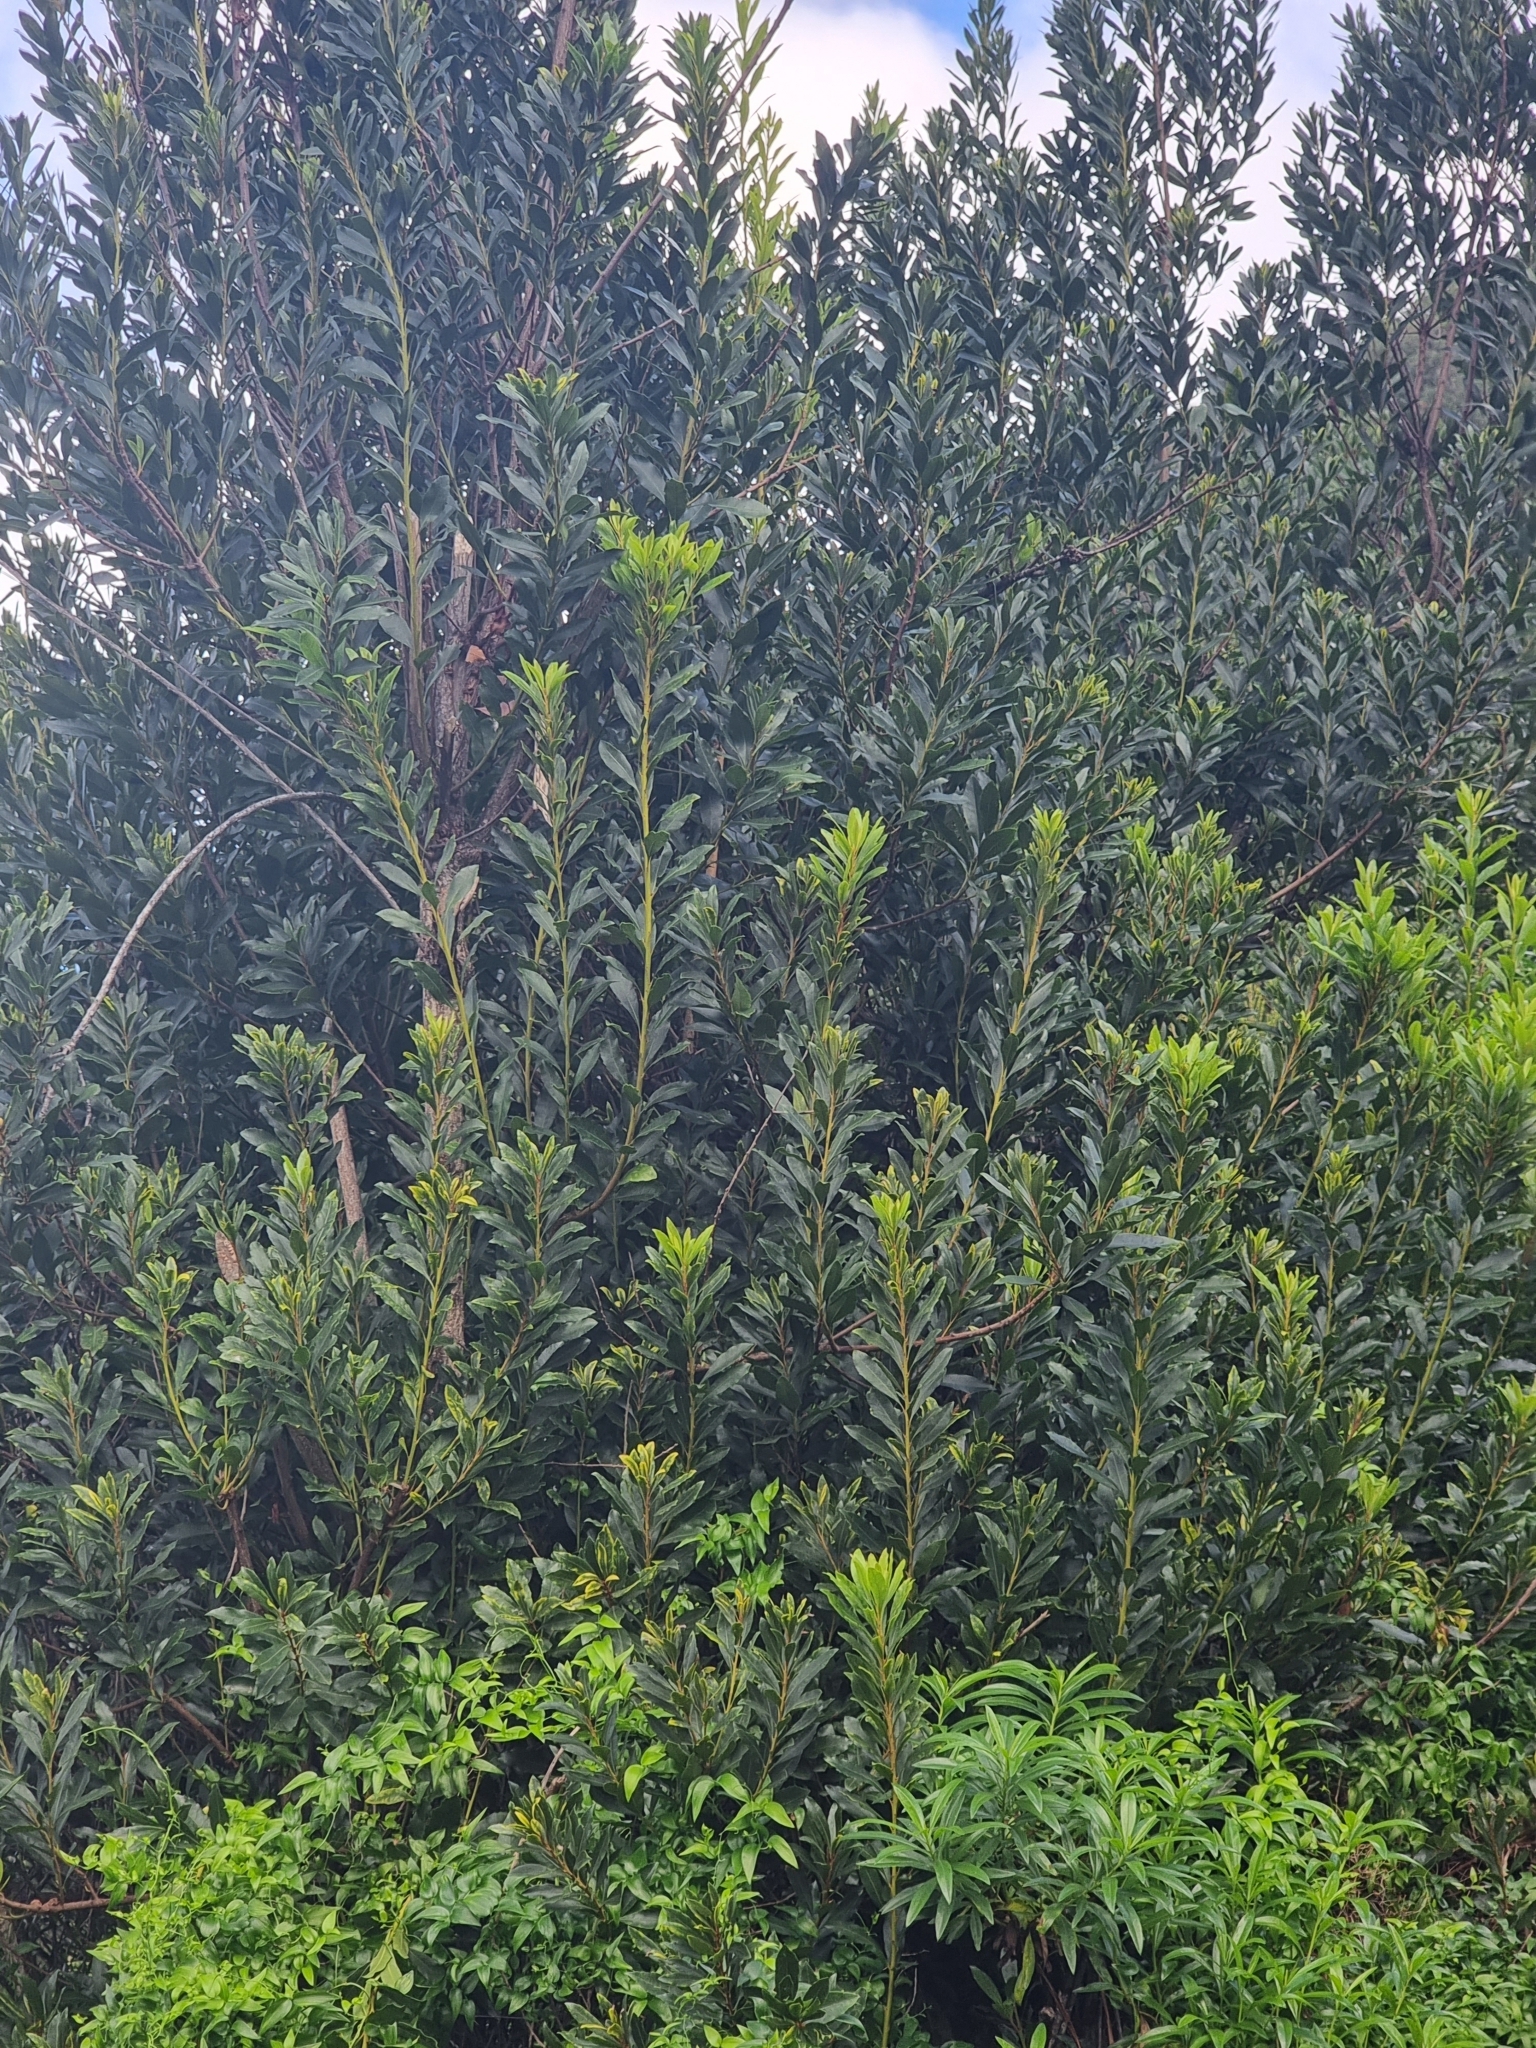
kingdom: Plantae
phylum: Tracheophyta
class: Magnoliopsida
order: Fagales
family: Myricaceae
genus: Morella
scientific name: Morella faya
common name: Firetree
